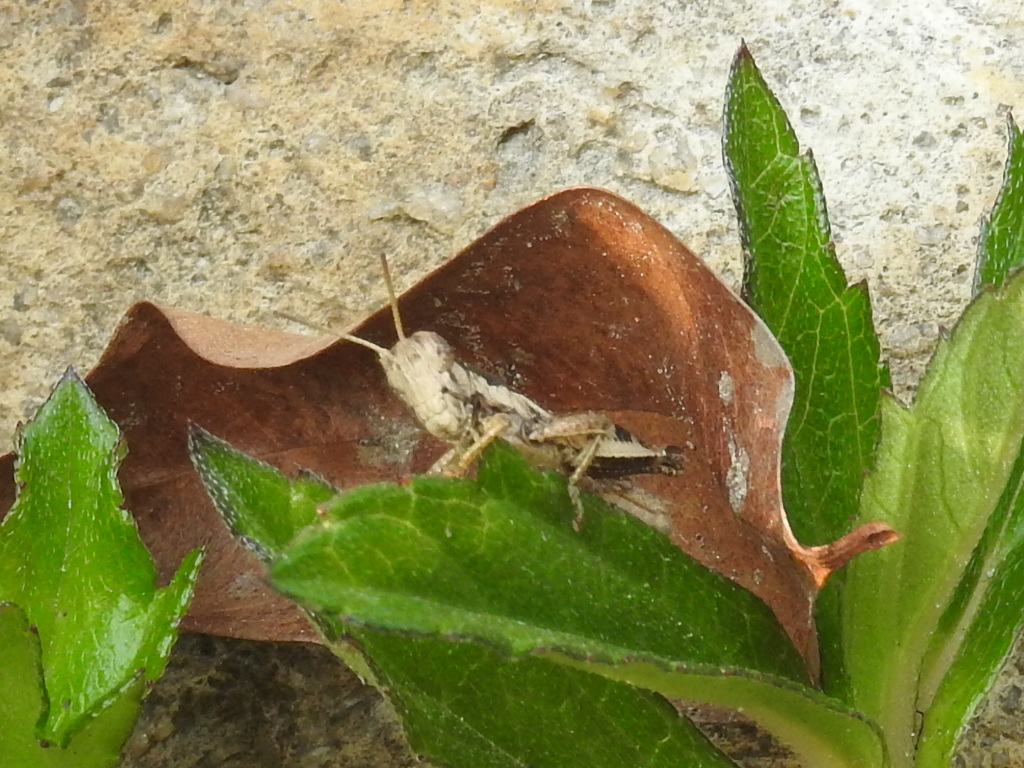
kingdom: Animalia
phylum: Arthropoda
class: Insecta
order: Orthoptera
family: Acrididae
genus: Pseudoxya
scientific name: Pseudoxya diminuta
